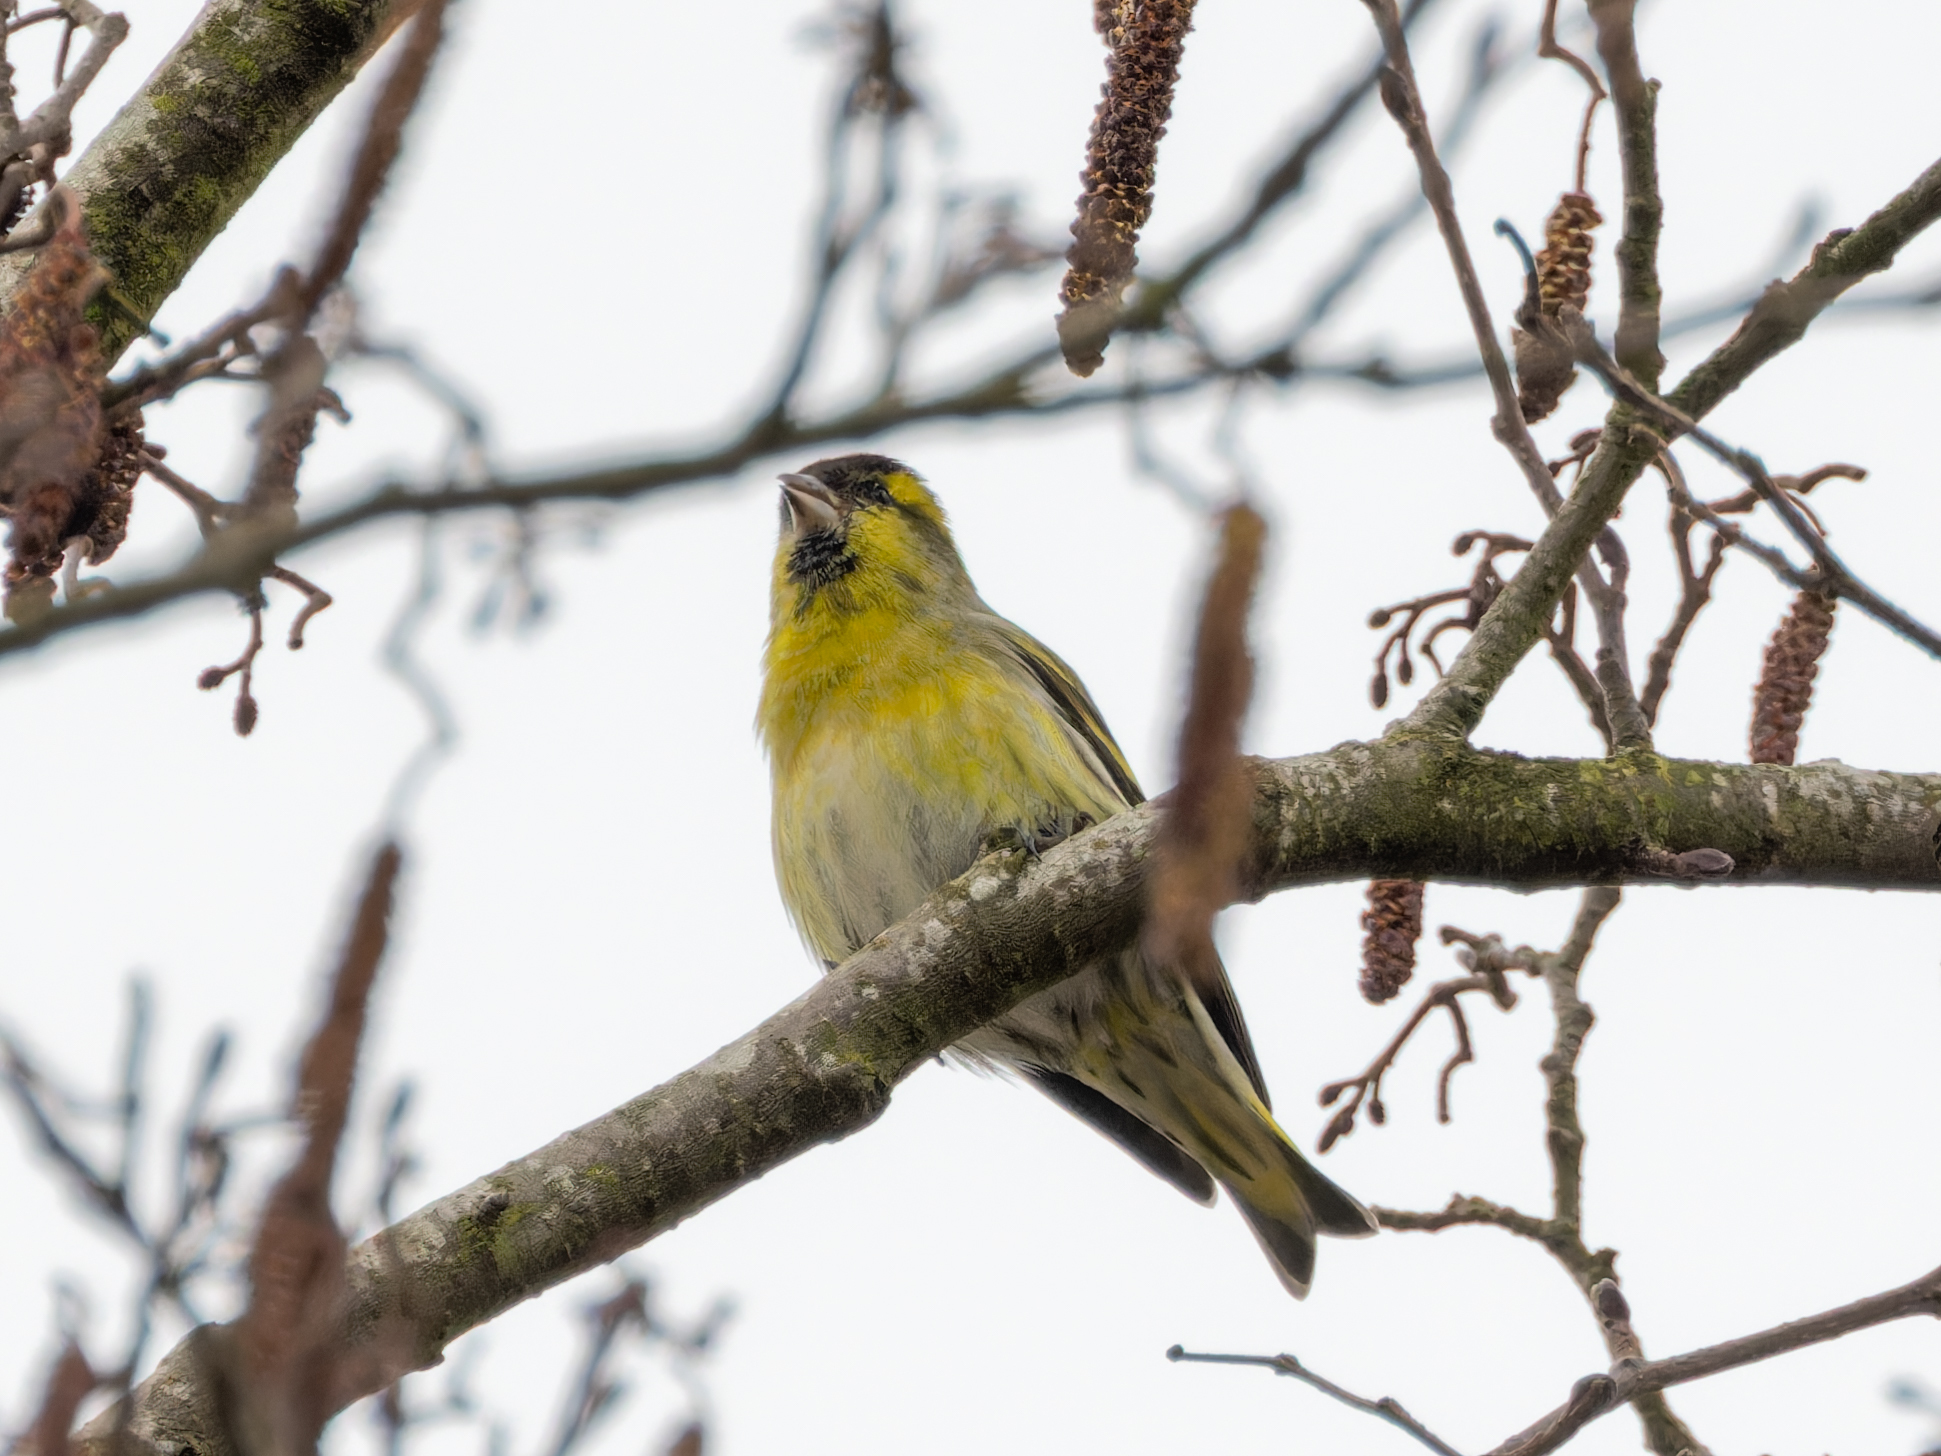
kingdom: Animalia
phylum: Chordata
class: Aves
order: Passeriformes
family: Fringillidae
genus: Spinus
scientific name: Spinus spinus
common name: Eurasian siskin
